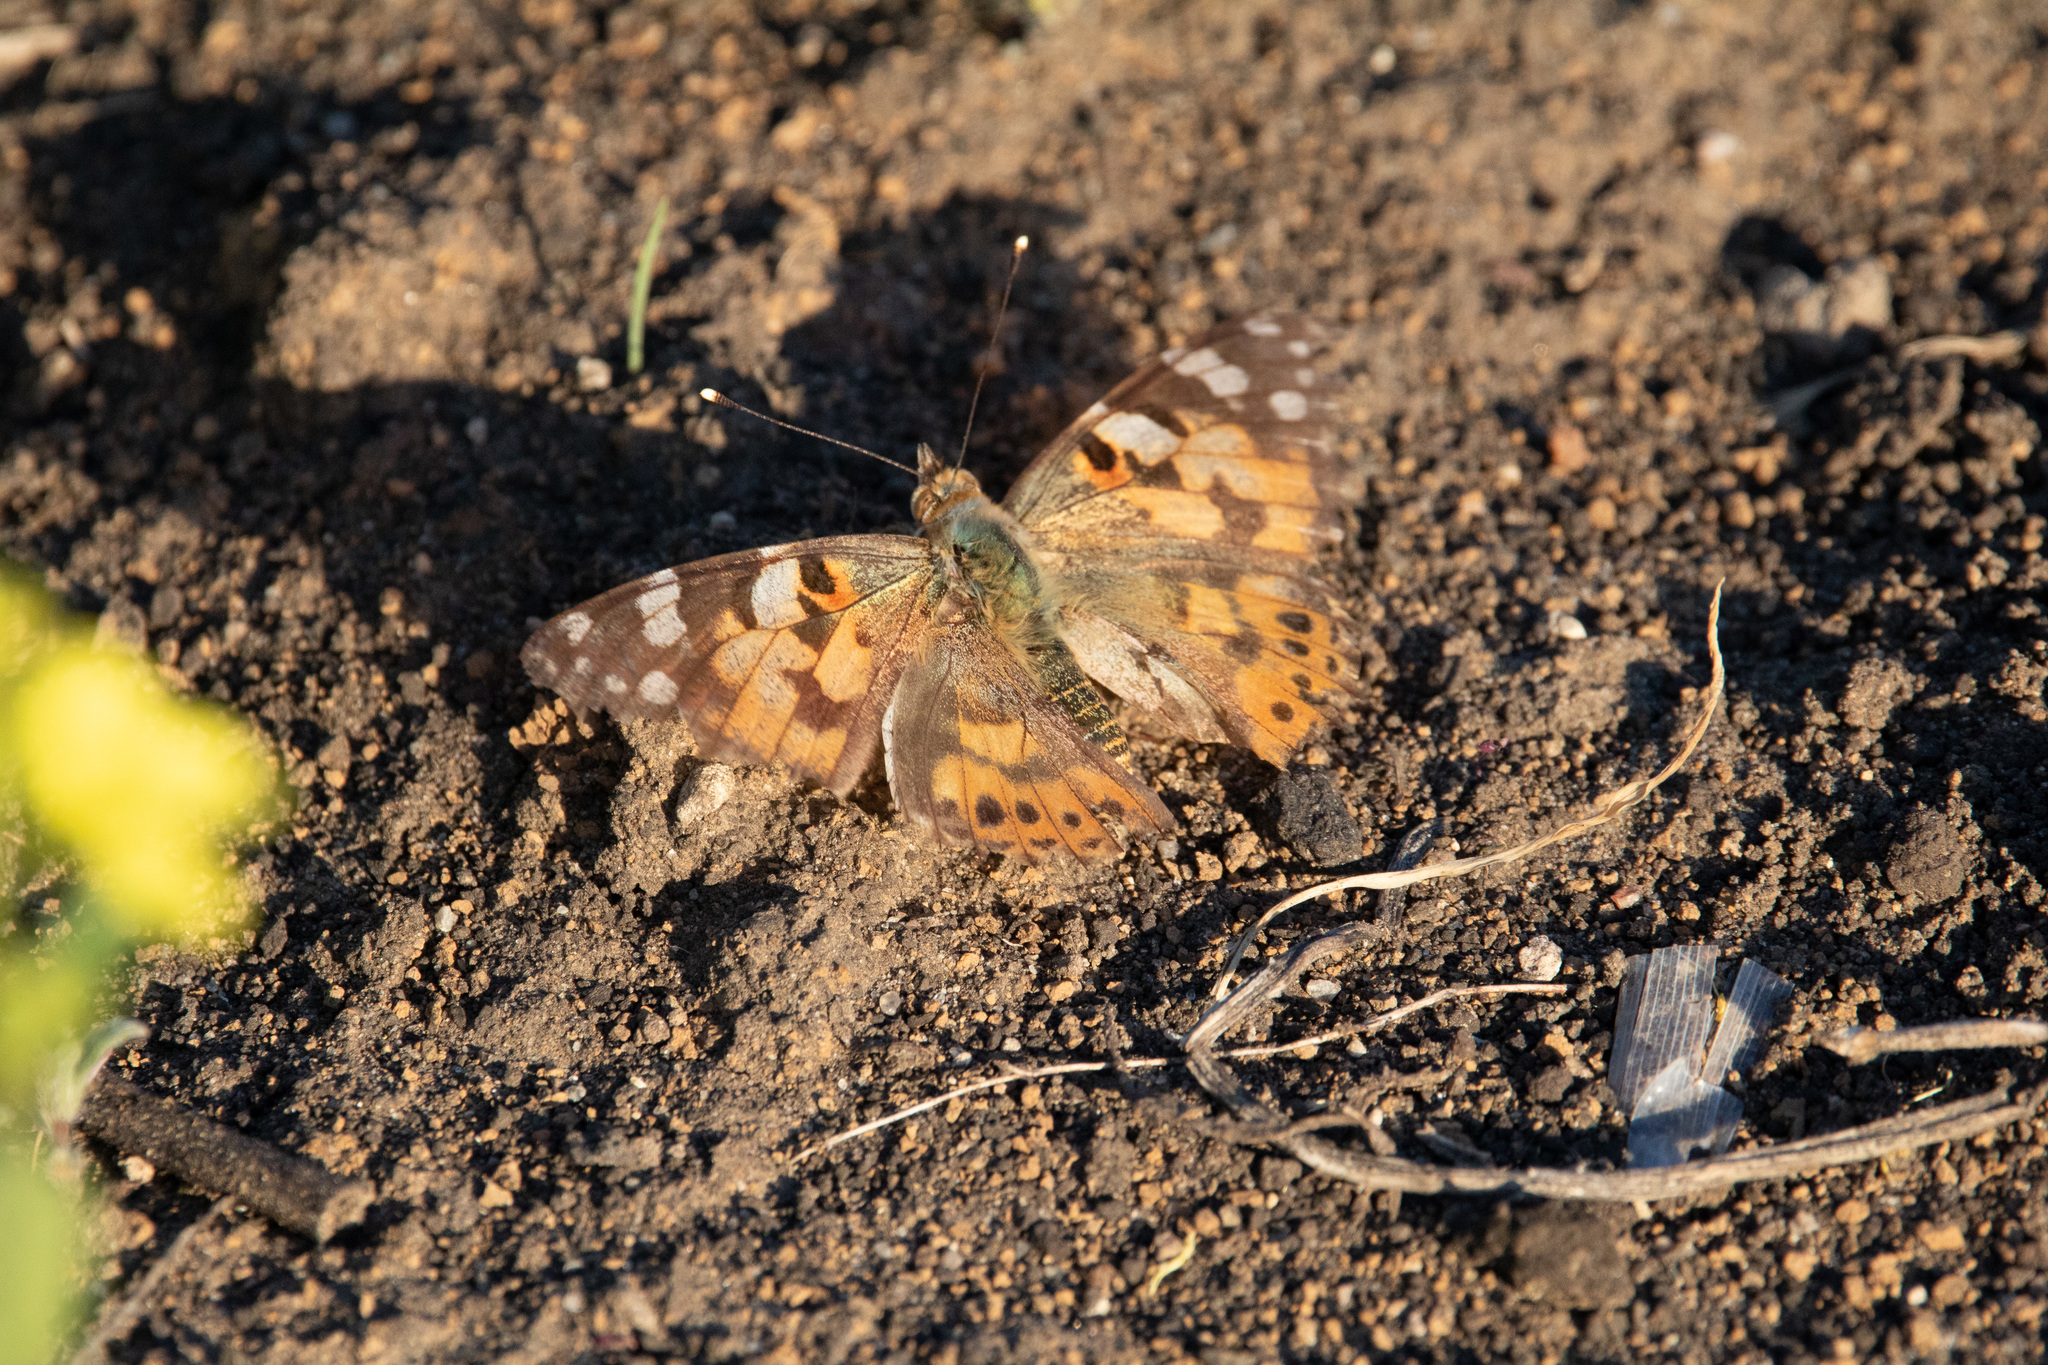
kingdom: Animalia
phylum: Arthropoda
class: Insecta
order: Lepidoptera
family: Nymphalidae
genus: Vanessa
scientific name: Vanessa cardui
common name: Painted lady
